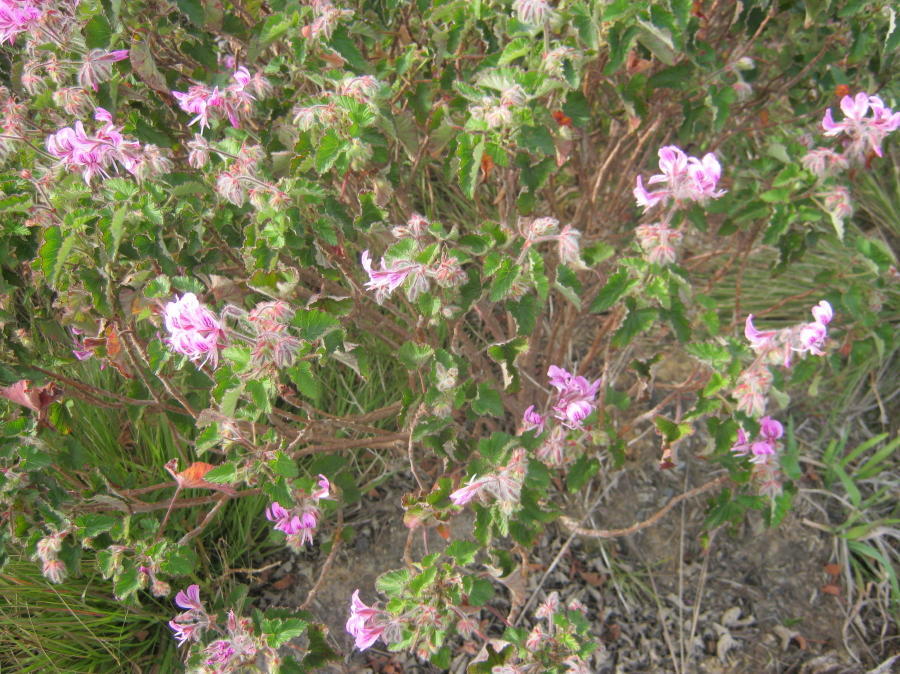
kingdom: Plantae
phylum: Tracheophyta
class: Magnoliopsida
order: Geraniales
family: Geraniaceae
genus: Pelargonium
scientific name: Pelargonium cordifolium
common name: Heart-leaf pelargonium
